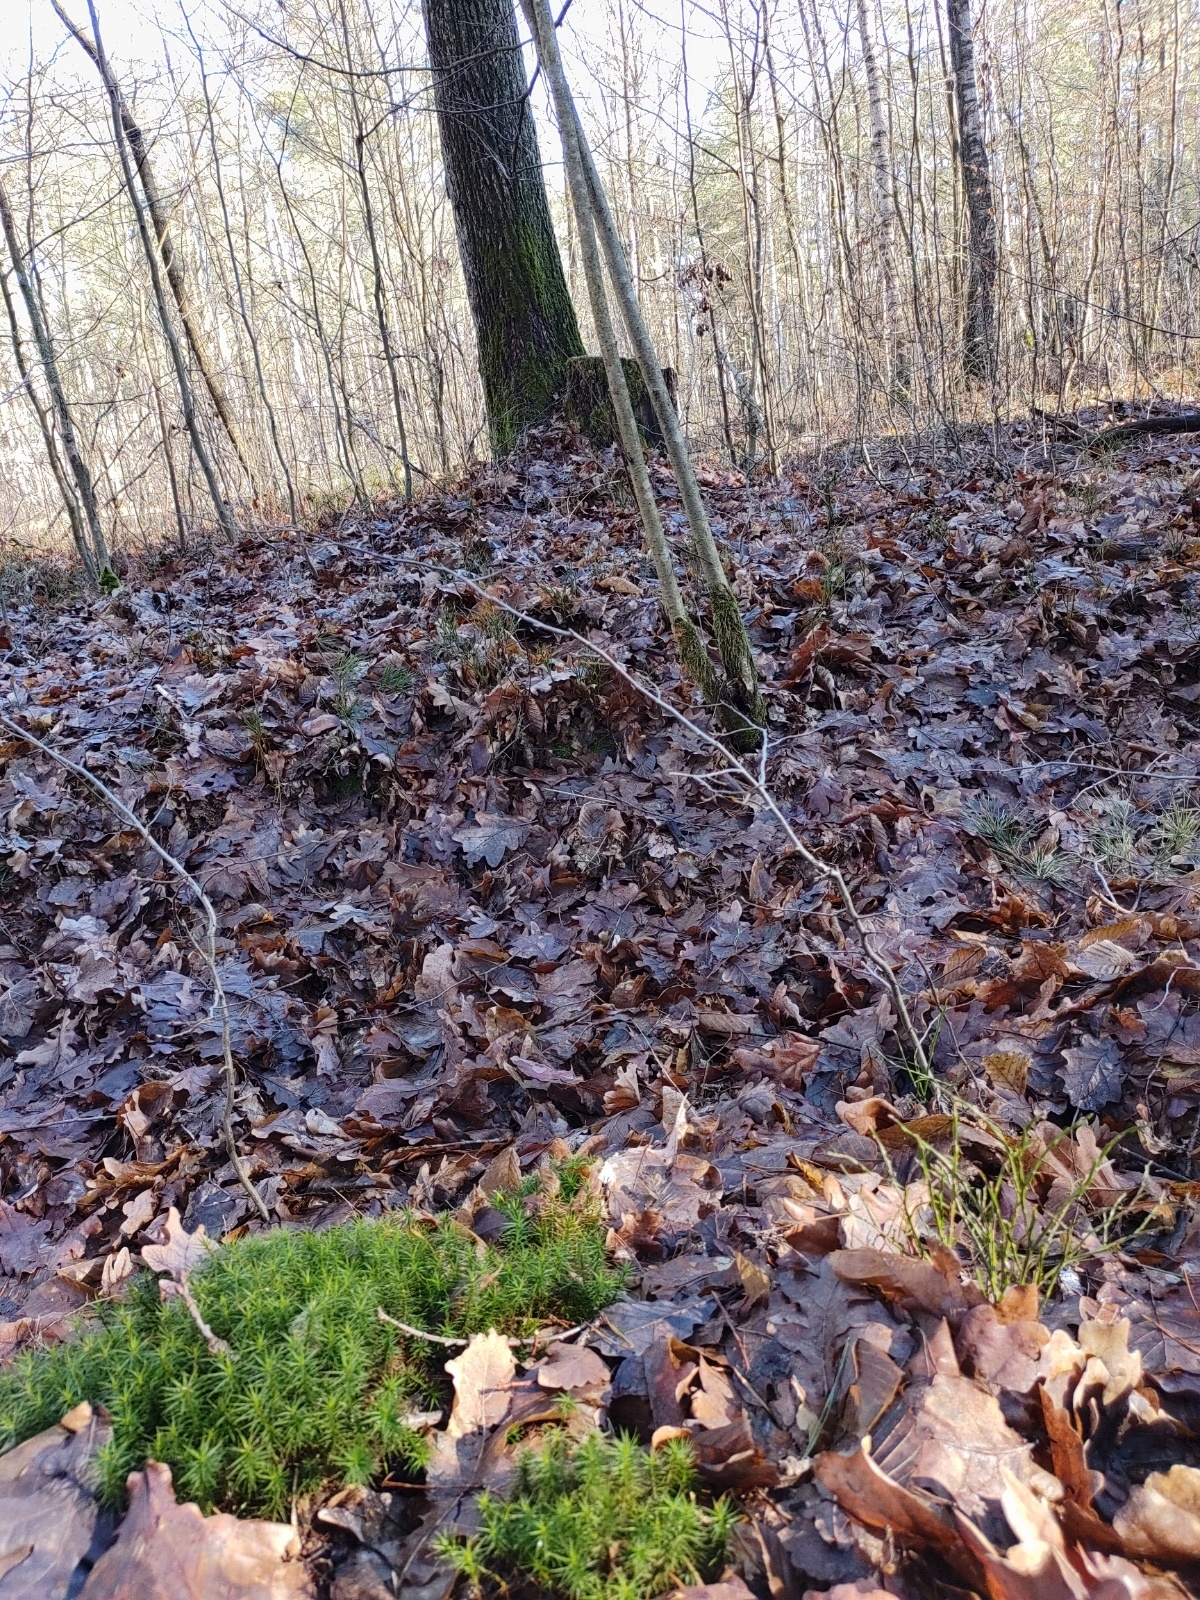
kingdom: Plantae
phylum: Bryophyta
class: Polytrichopsida
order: Polytrichales
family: Polytrichaceae
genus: Polytrichum
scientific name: Polytrichum formosum
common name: Bank haircap moss
